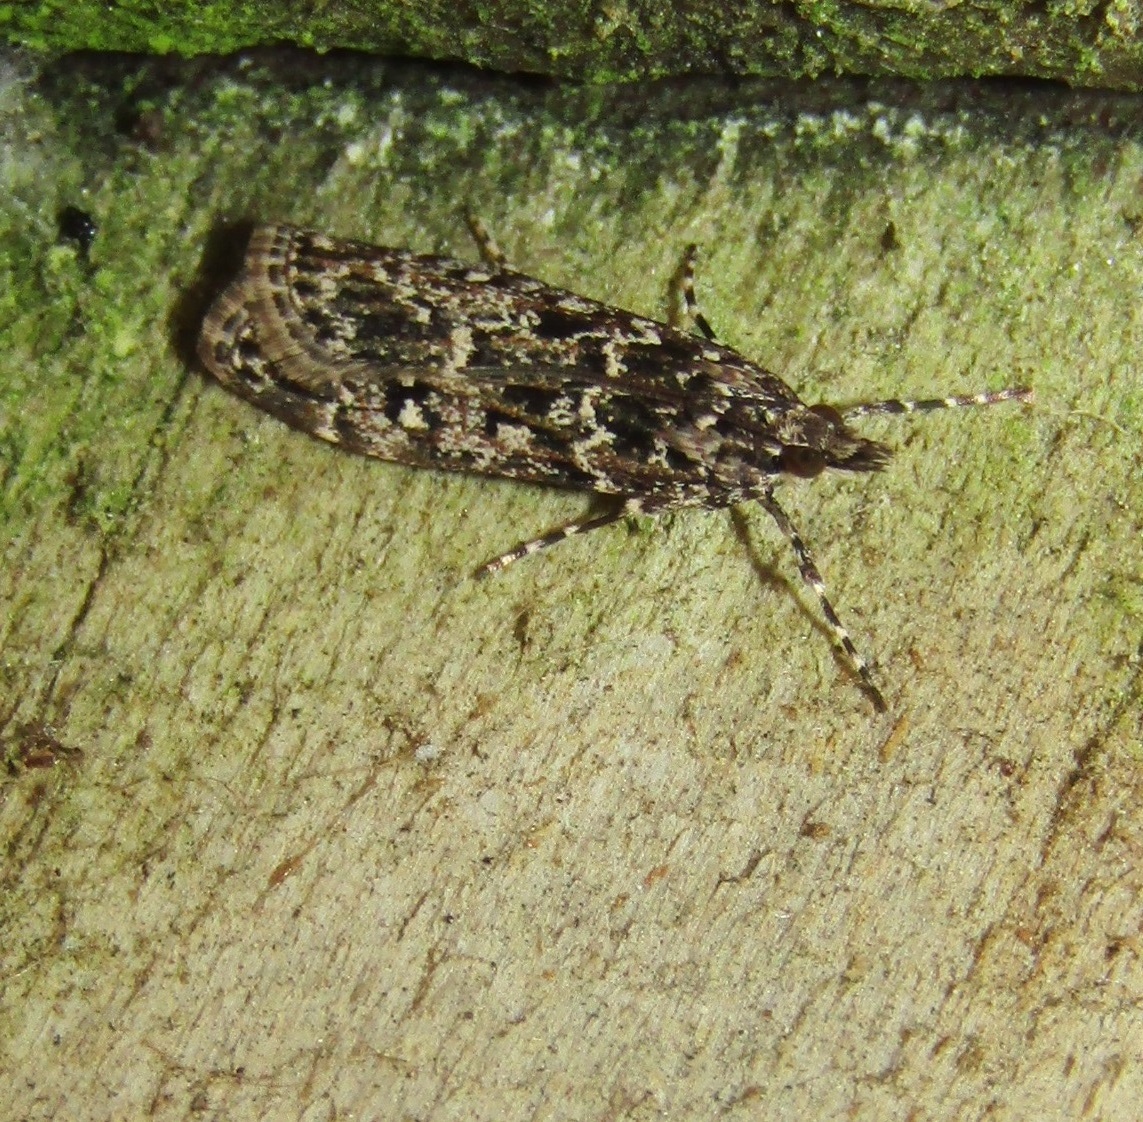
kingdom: Animalia
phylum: Arthropoda
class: Insecta
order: Lepidoptera
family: Crambidae
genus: Eudonia
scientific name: Eudonia philerga
